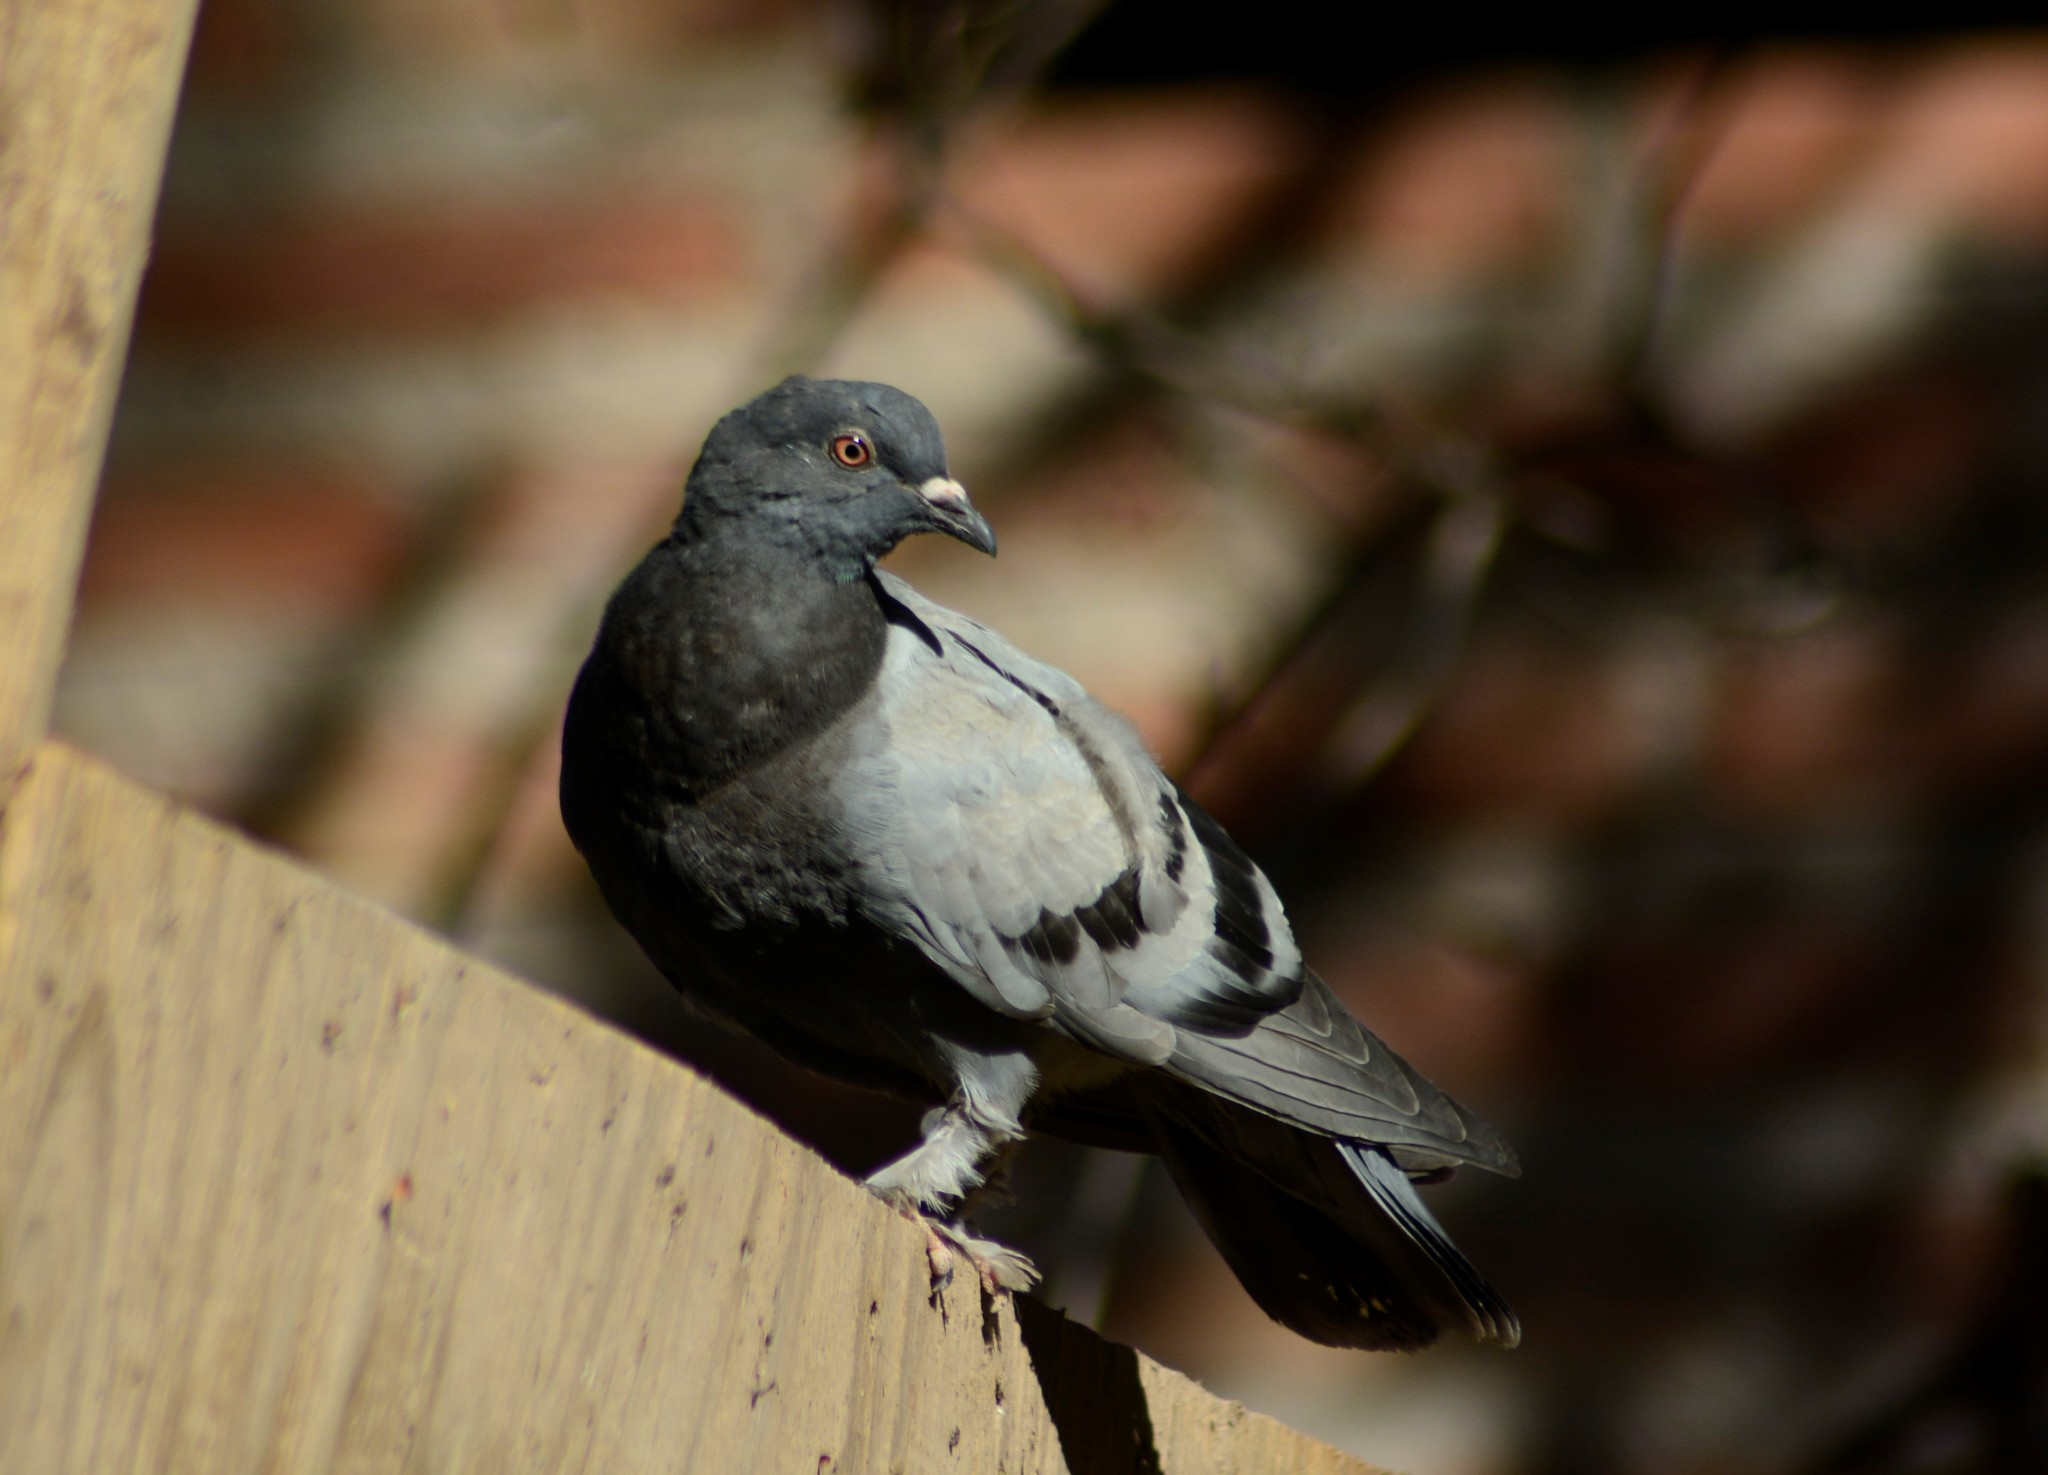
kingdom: Animalia
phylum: Chordata
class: Aves
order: Columbiformes
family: Columbidae
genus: Columba
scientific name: Columba livia
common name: Rock pigeon
